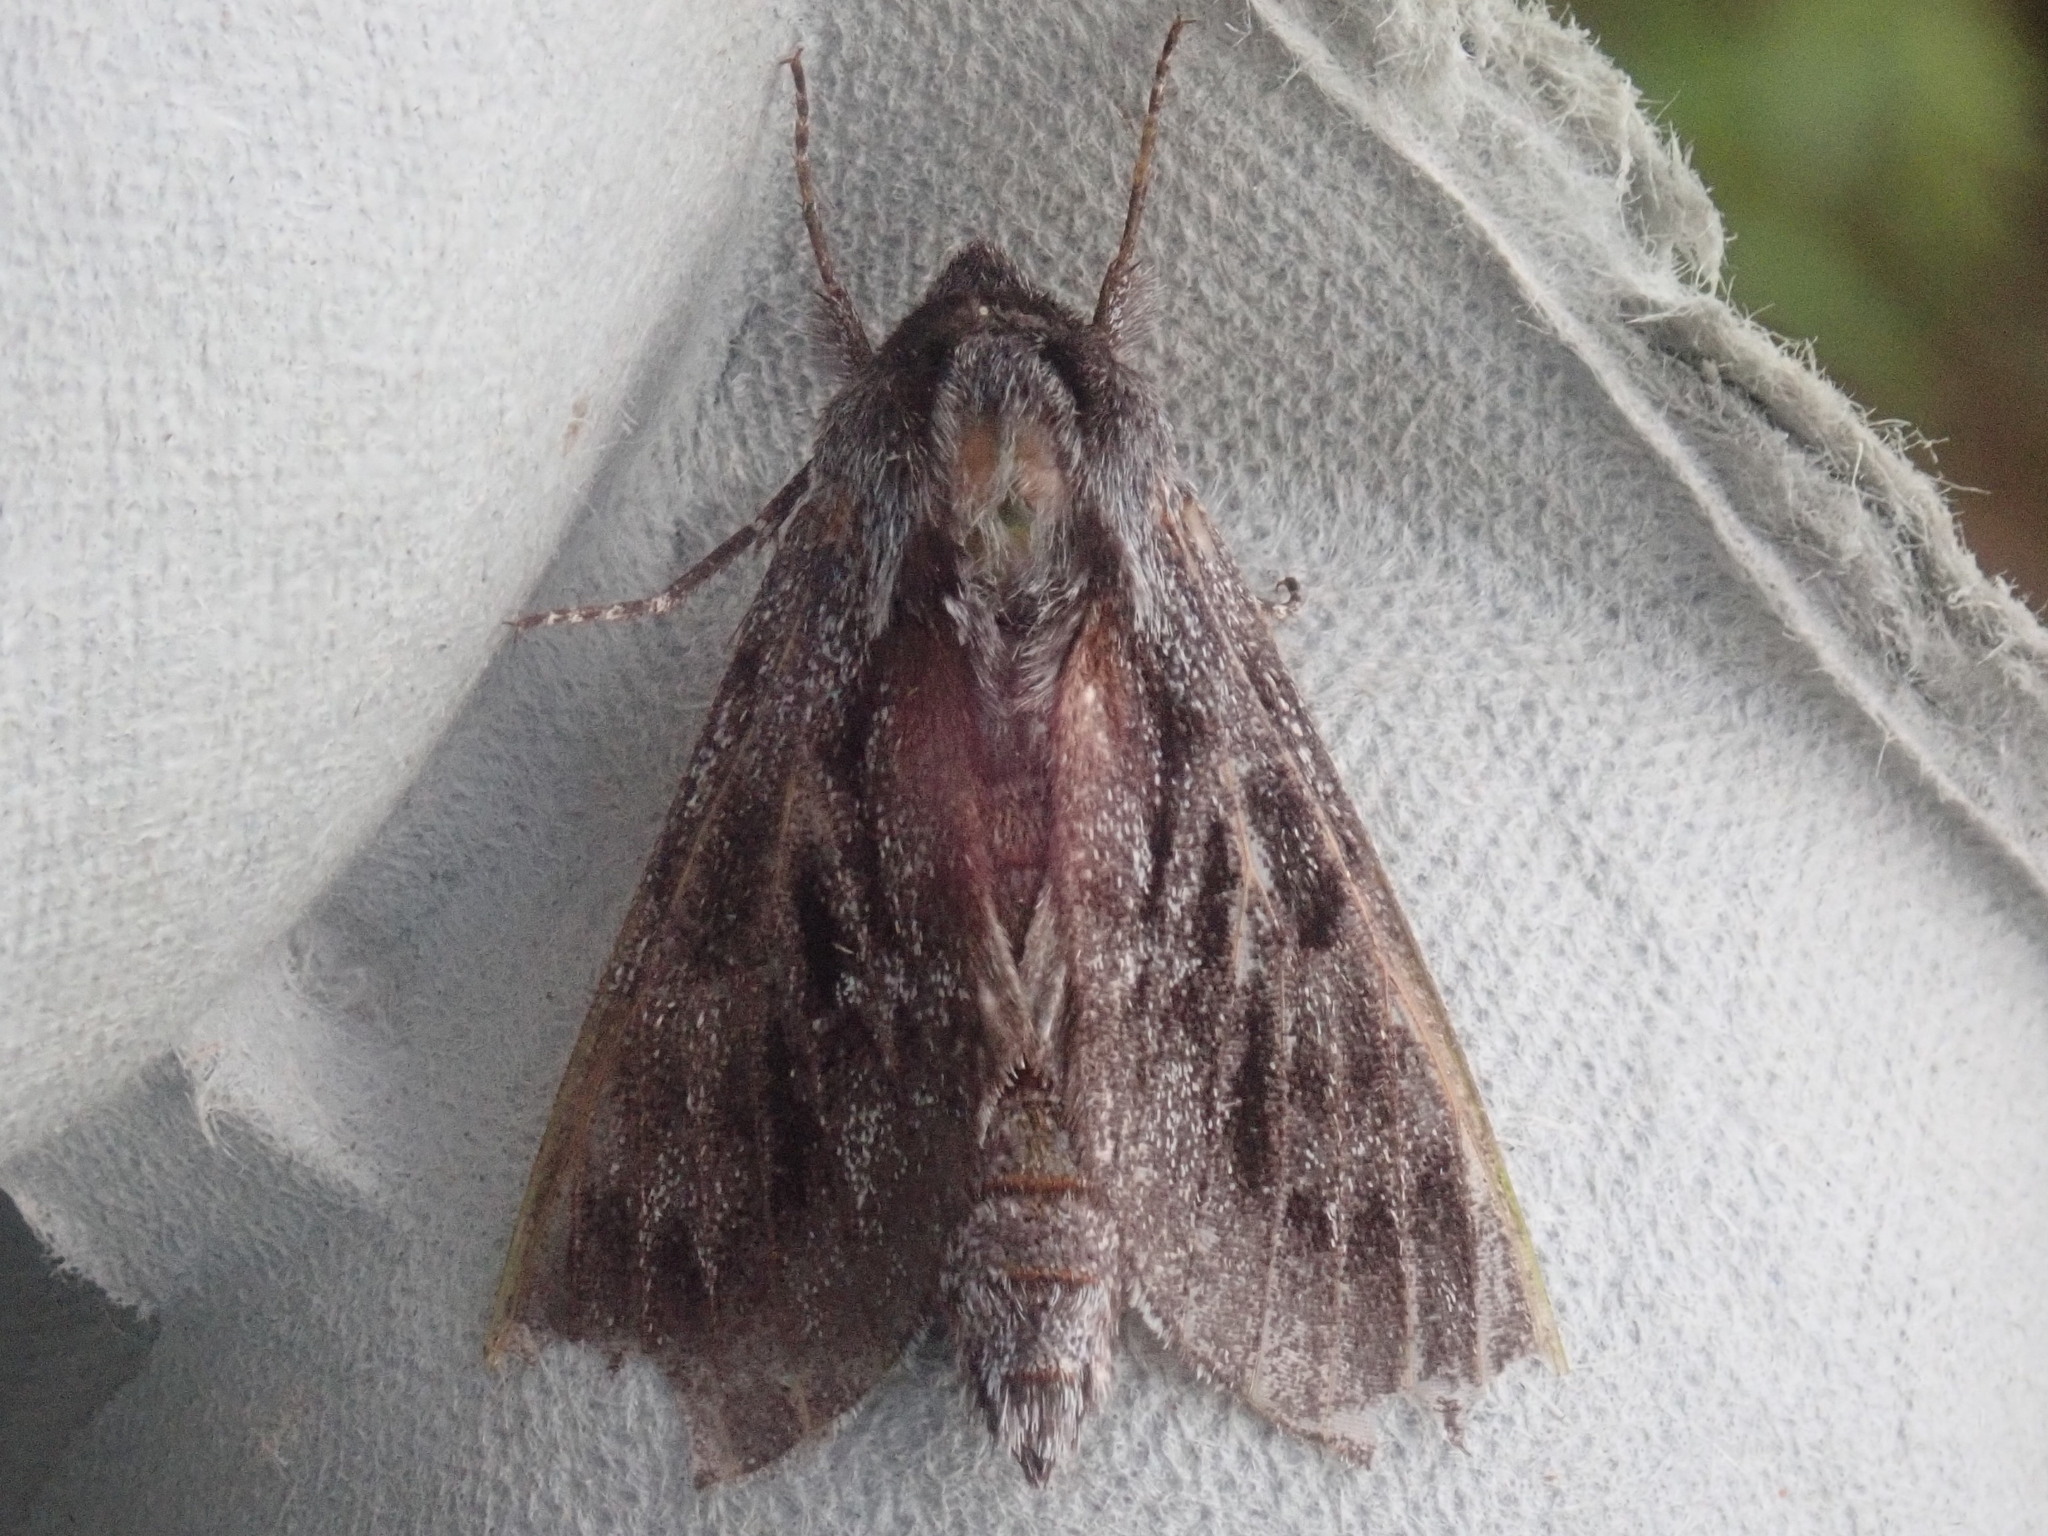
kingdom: Animalia
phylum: Arthropoda
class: Insecta
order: Lepidoptera
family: Sphingidae
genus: Lapara
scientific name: Lapara bombycoides
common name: Northern pine sphinx
